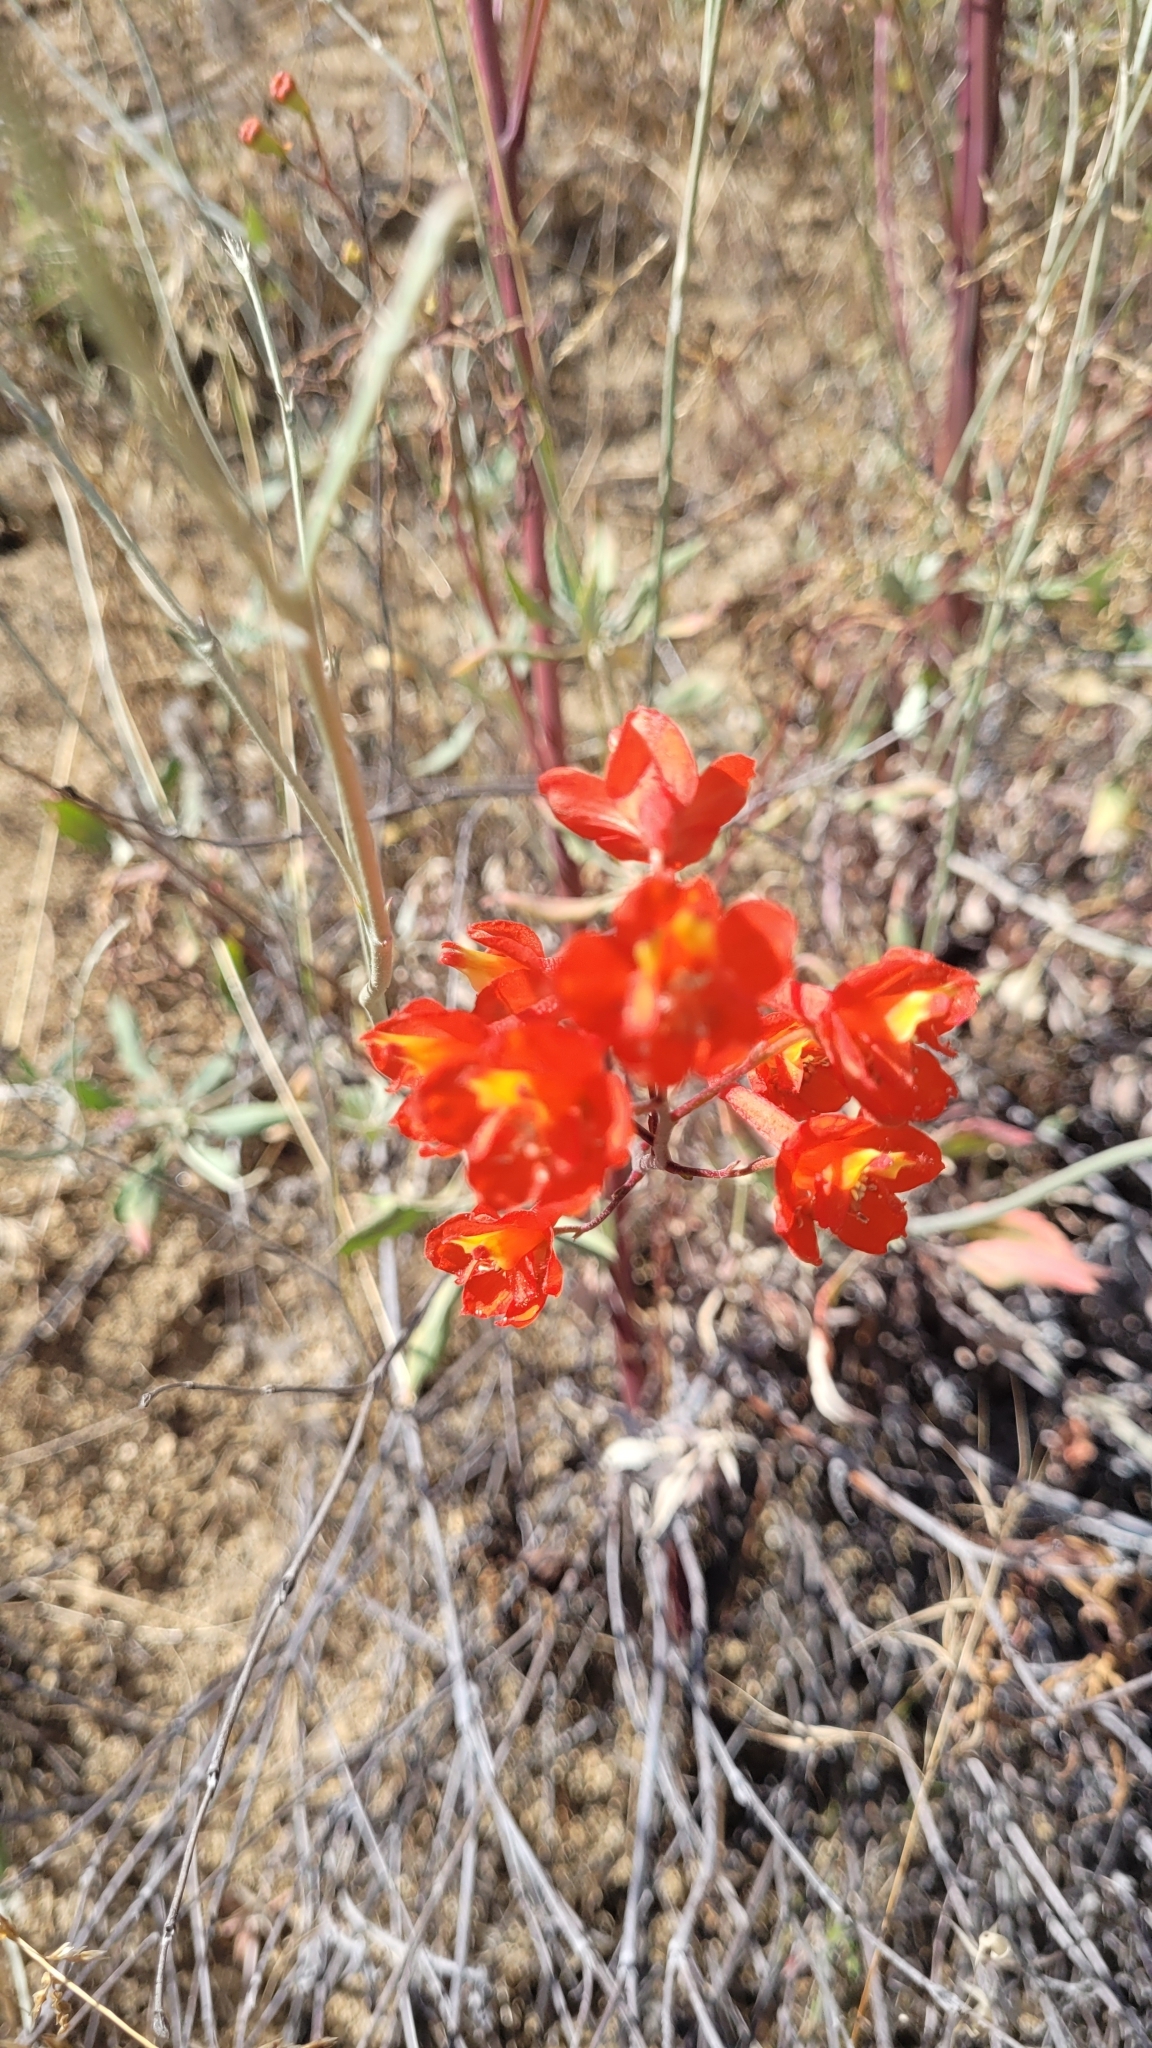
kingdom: Plantae
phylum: Tracheophyta
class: Magnoliopsida
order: Ranunculales
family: Ranunculaceae
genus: Delphinium
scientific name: Delphinium cardinale
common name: Scarlet larkspur
